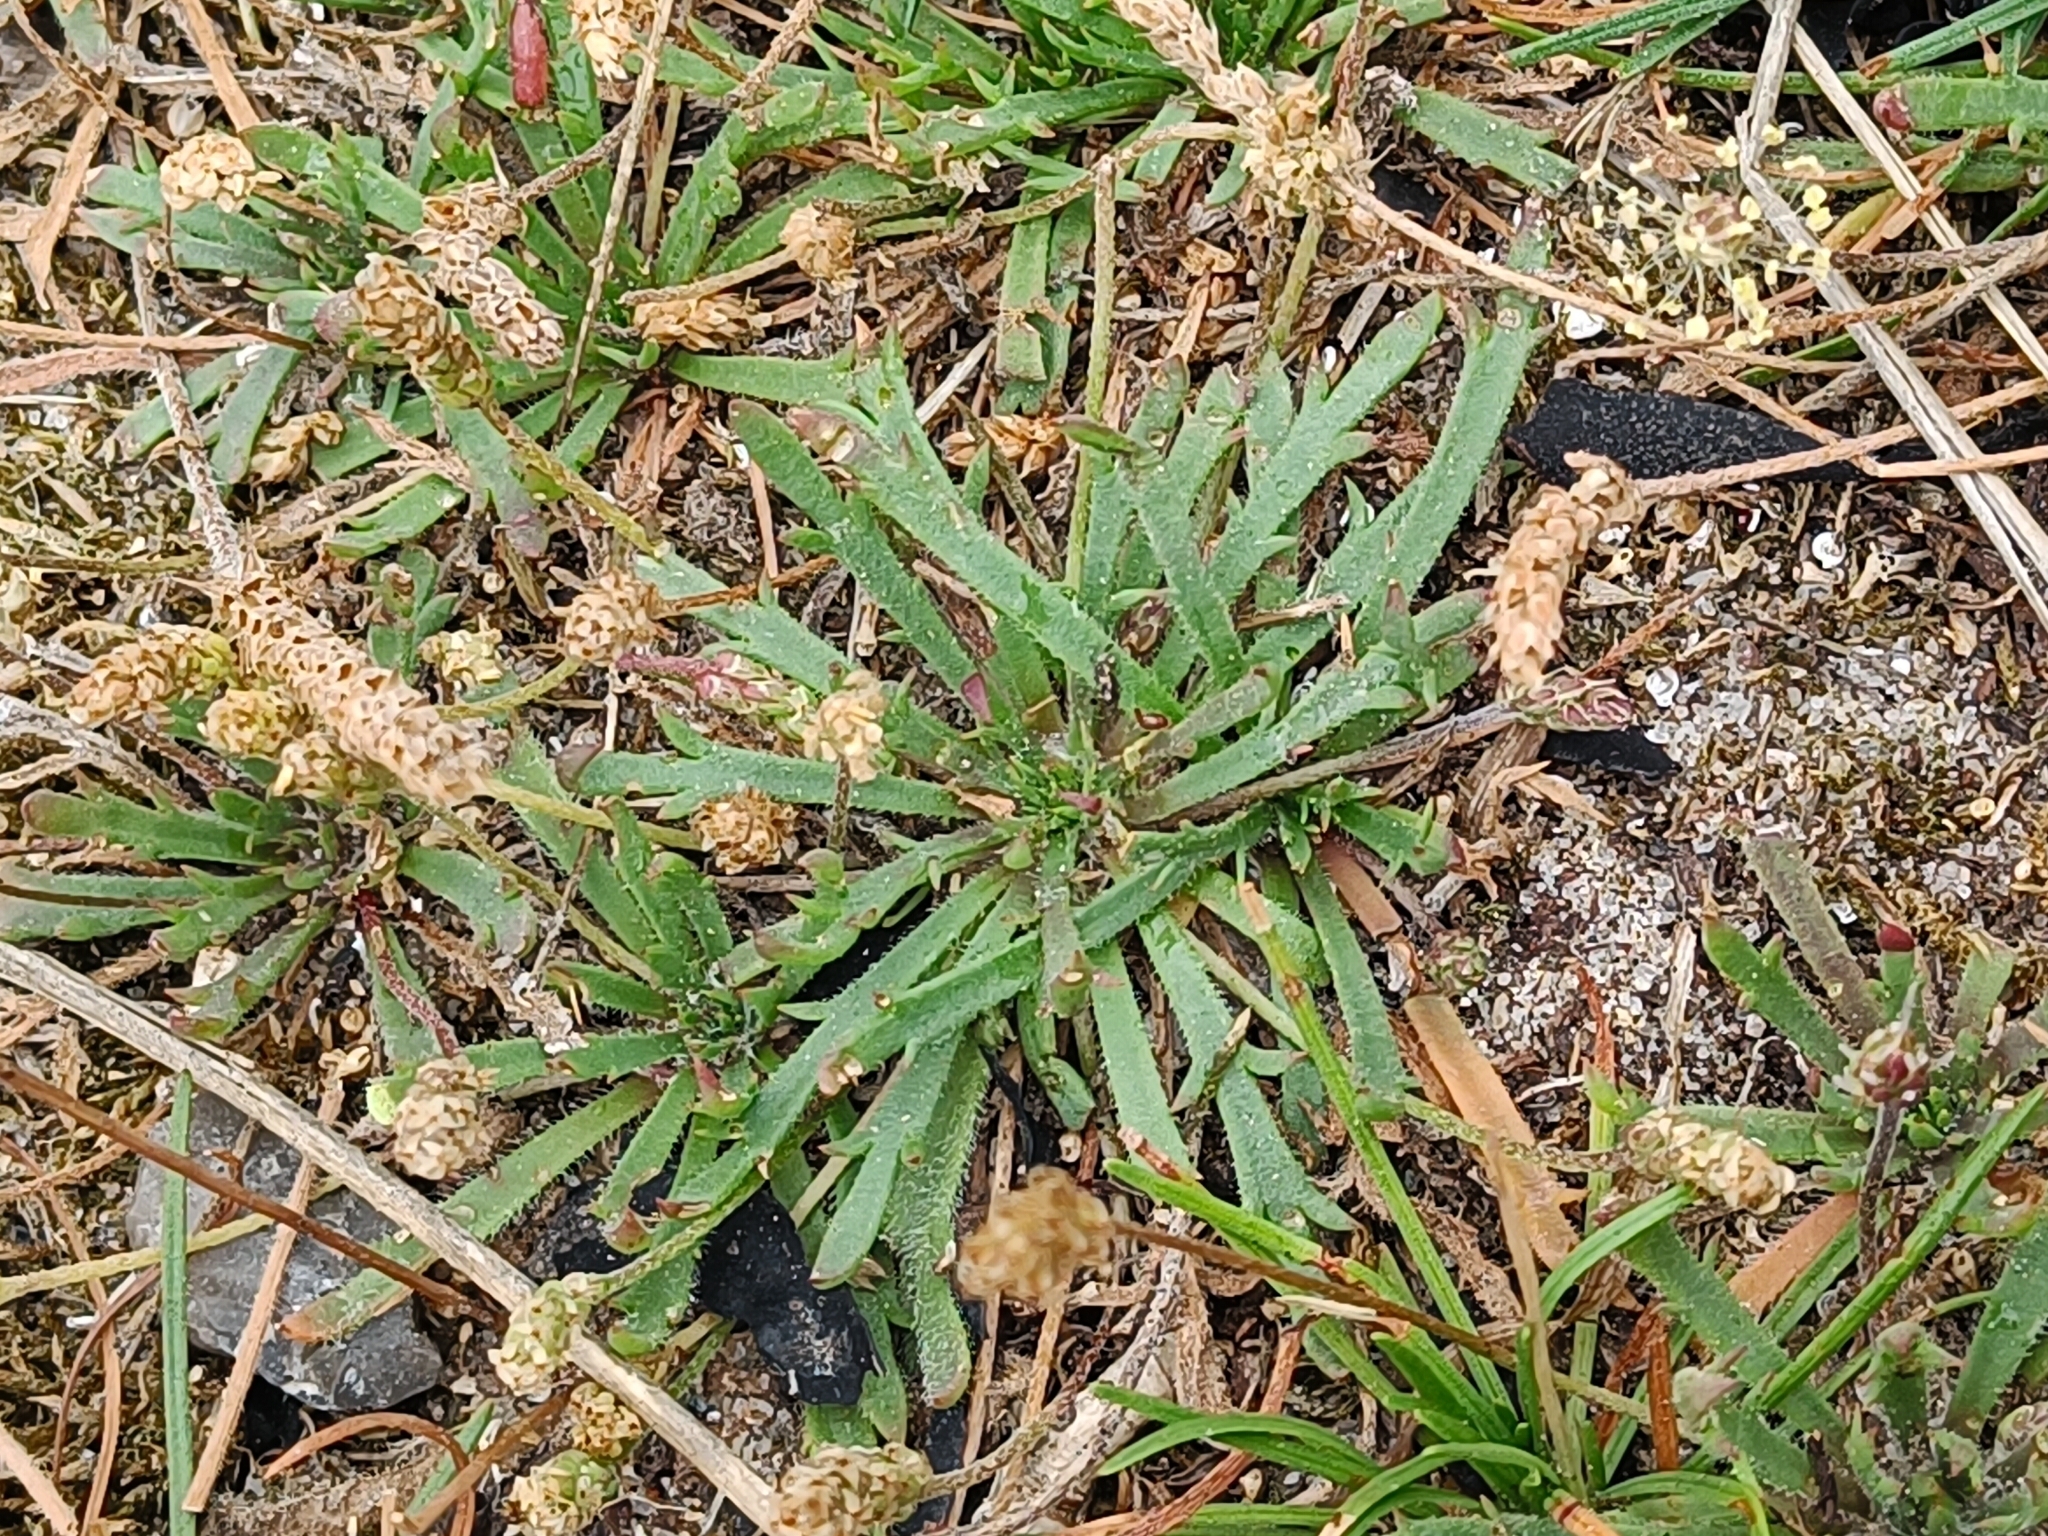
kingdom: Plantae
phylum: Tracheophyta
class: Magnoliopsida
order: Lamiales
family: Plantaginaceae
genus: Plantago
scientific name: Plantago coronopus
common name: Buck's-horn plantain
